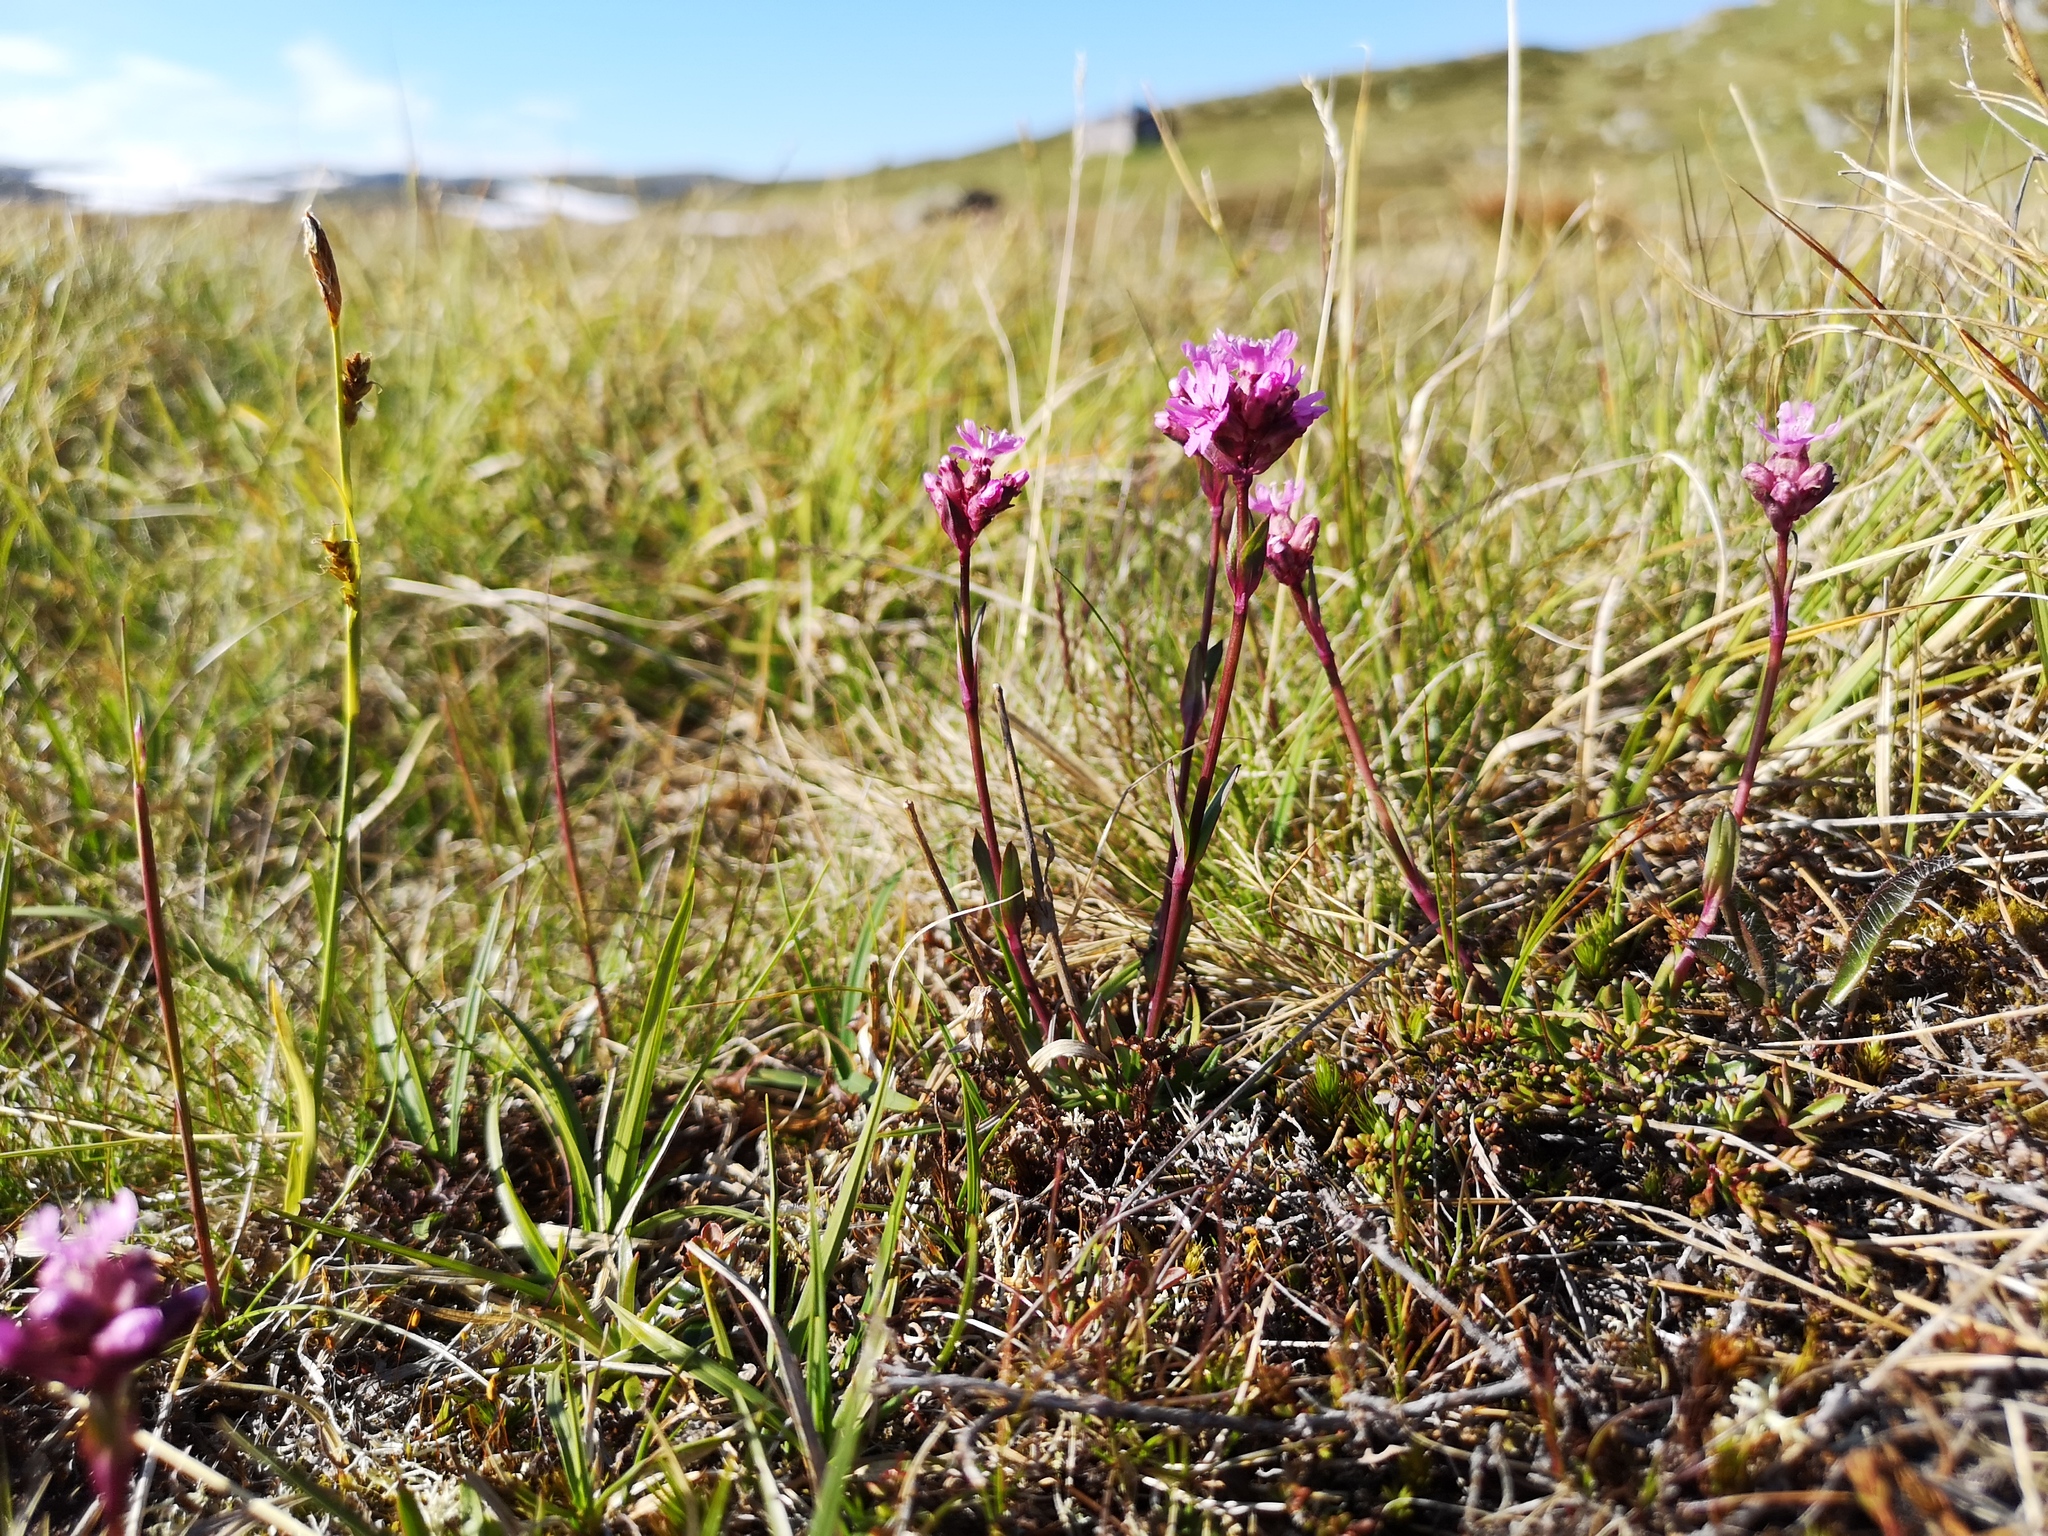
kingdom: Plantae
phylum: Tracheophyta
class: Magnoliopsida
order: Caryophyllales
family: Caryophyllaceae
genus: Viscaria
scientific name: Viscaria alpina
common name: Alpine campion
